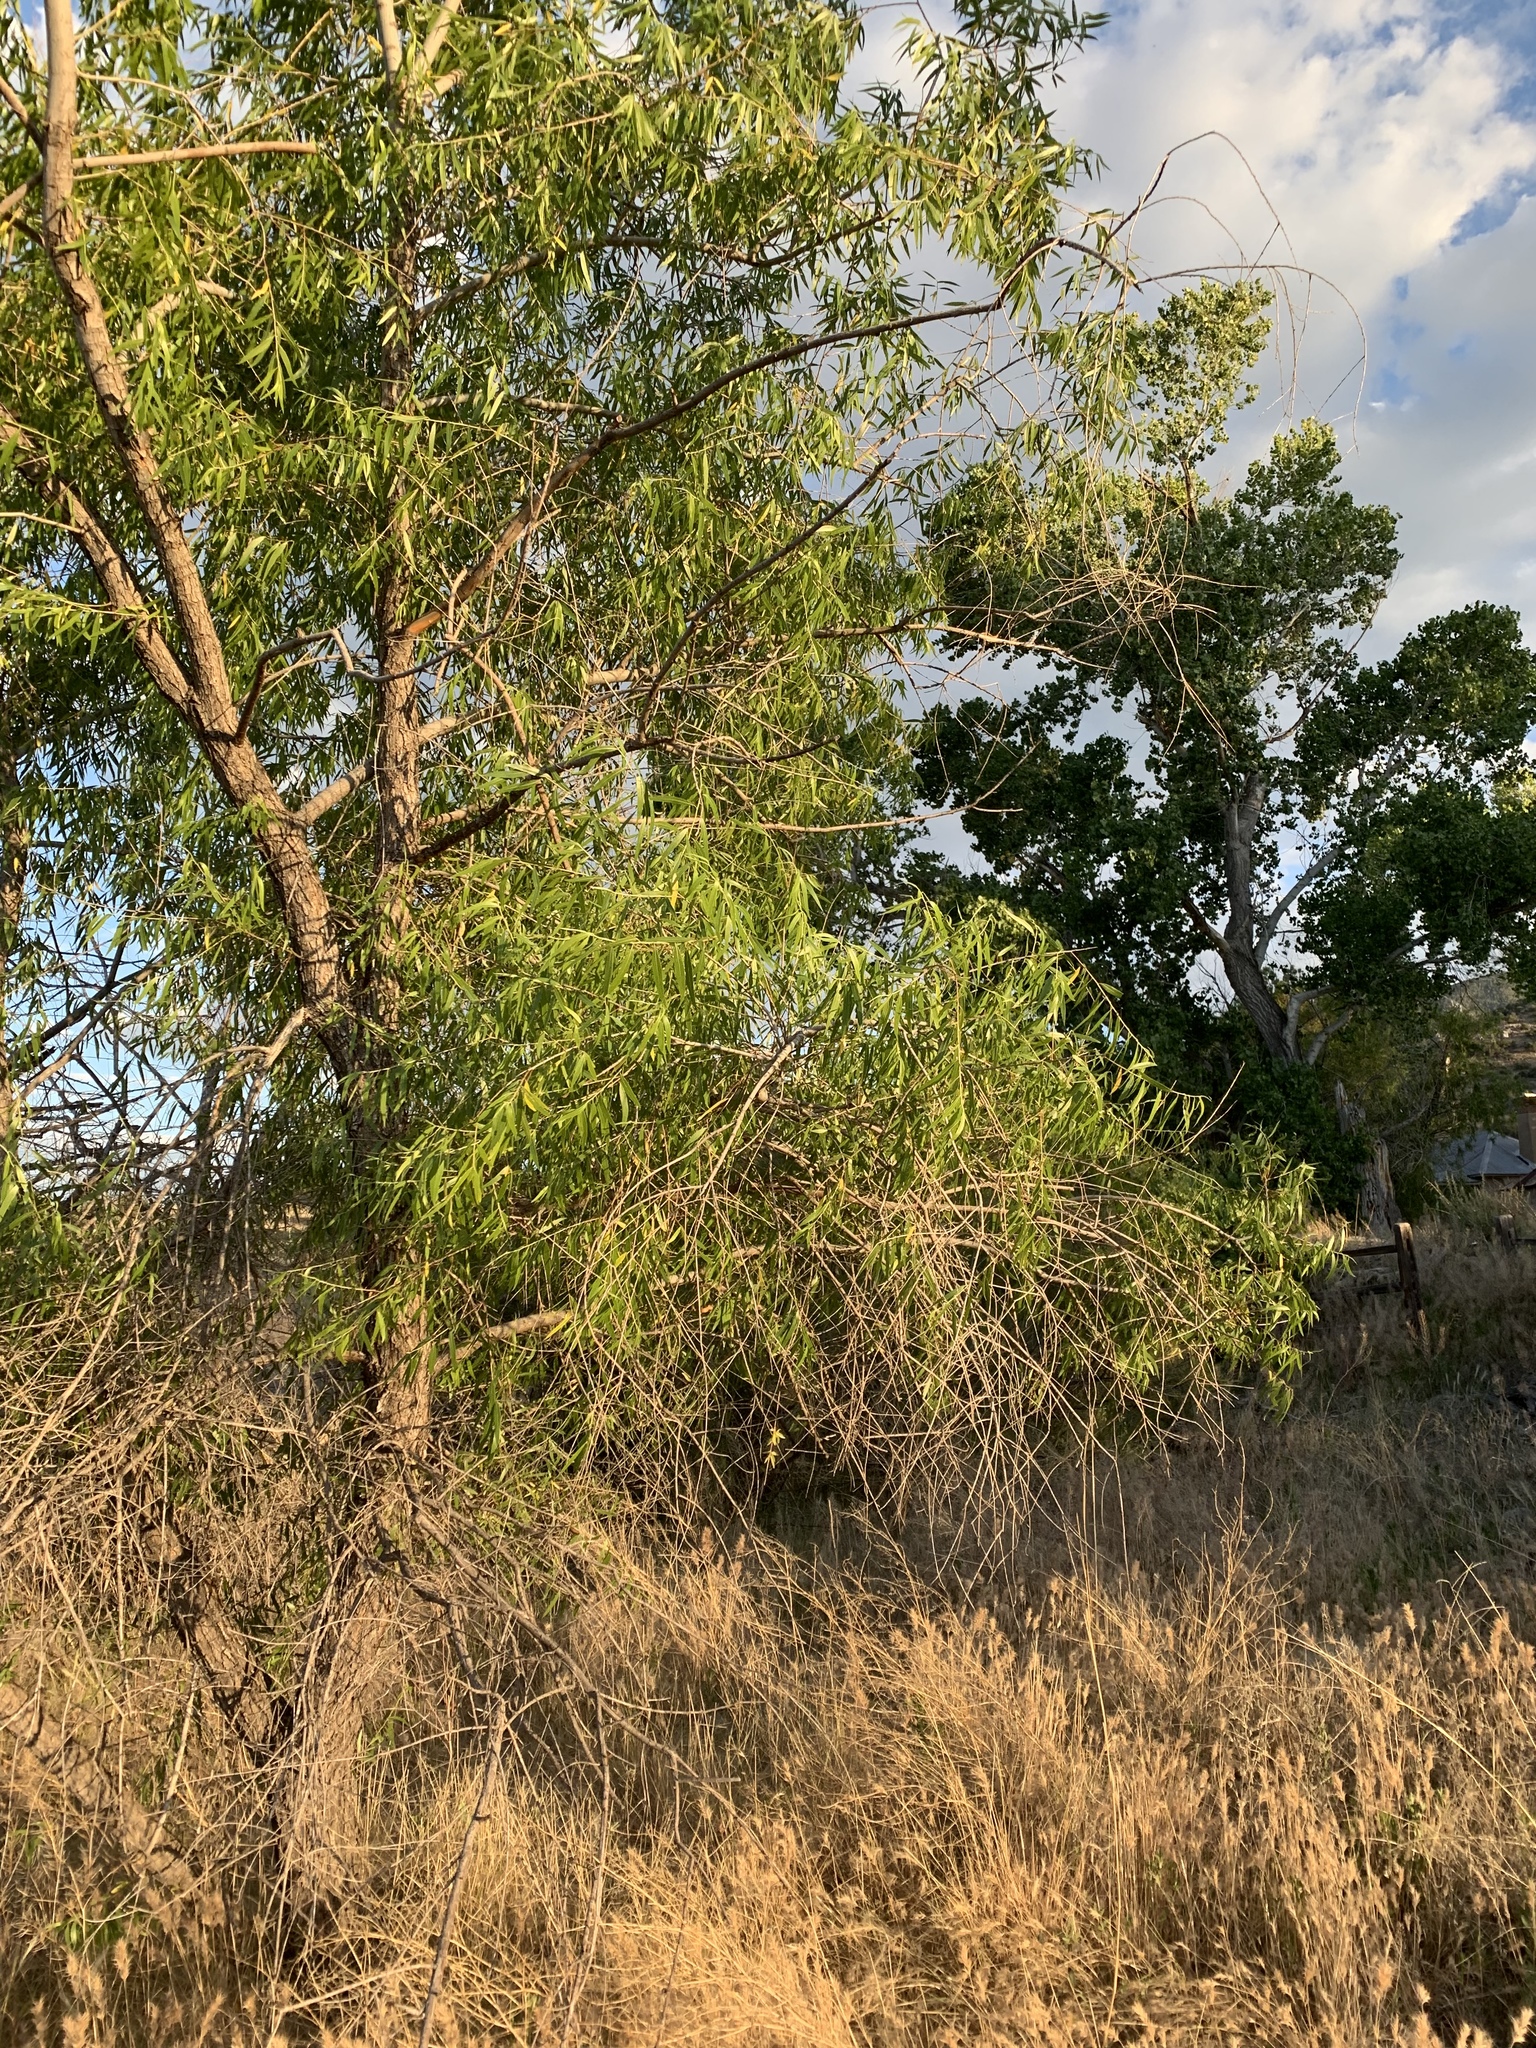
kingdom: Plantae
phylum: Tracheophyta
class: Magnoliopsida
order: Malpighiales
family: Salicaceae
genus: Salix
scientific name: Salix gooddingii
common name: Goodding's willow
